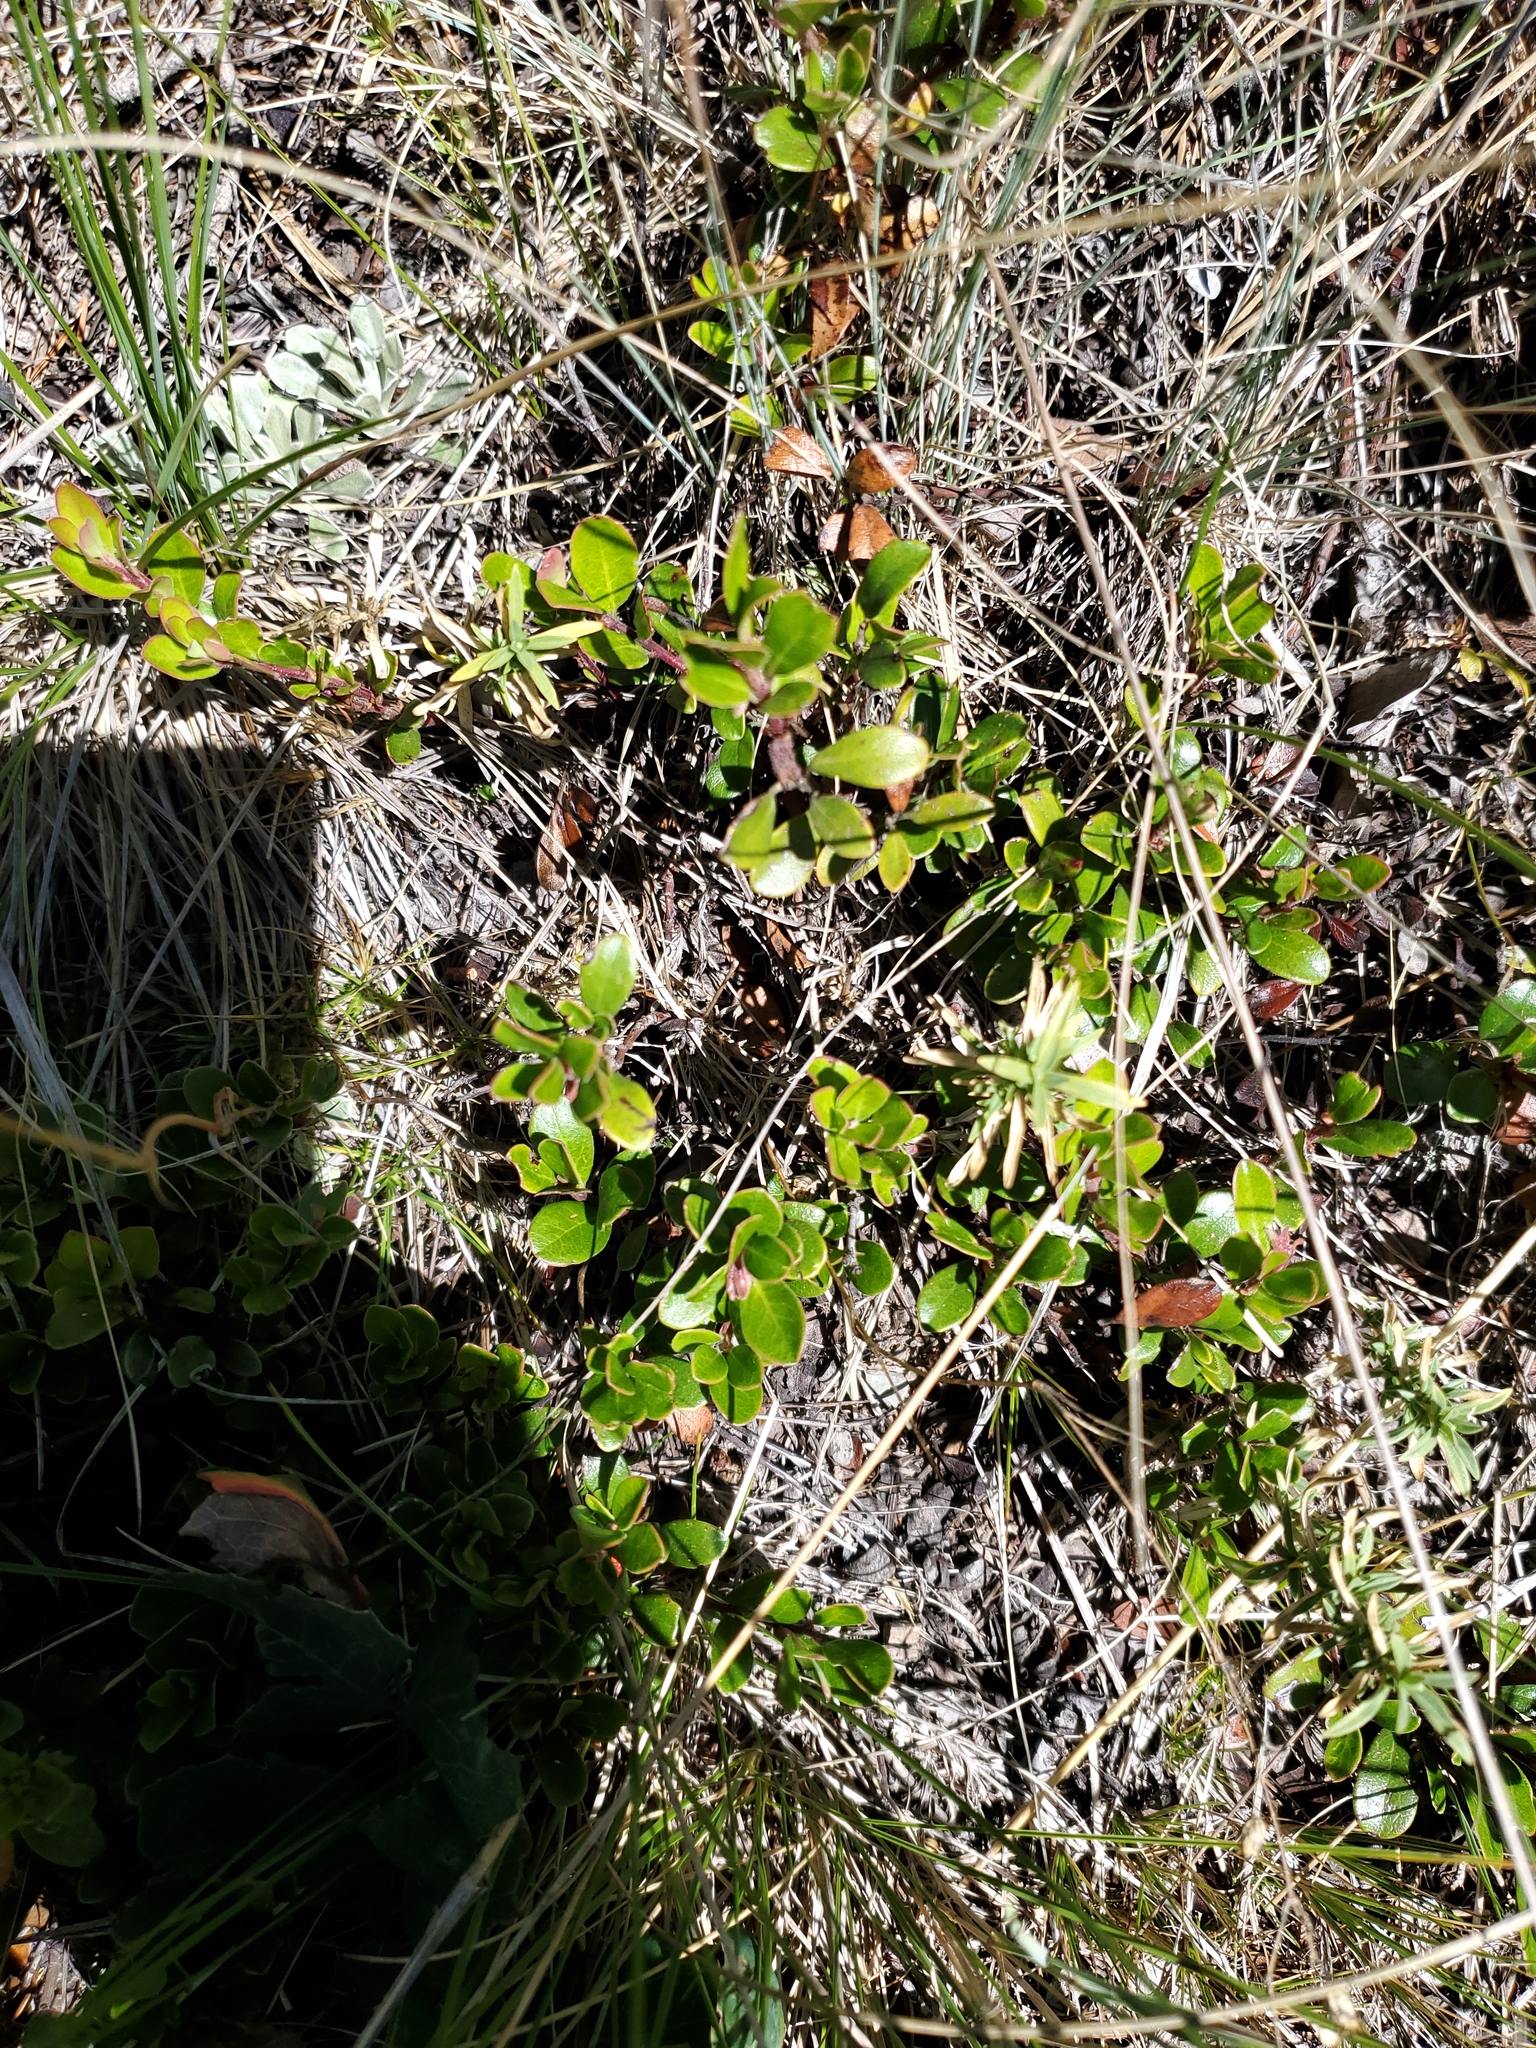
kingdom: Plantae
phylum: Tracheophyta
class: Magnoliopsida
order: Ericales
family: Ericaceae
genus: Arctostaphylos
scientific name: Arctostaphylos uva-ursi
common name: Bearberry
